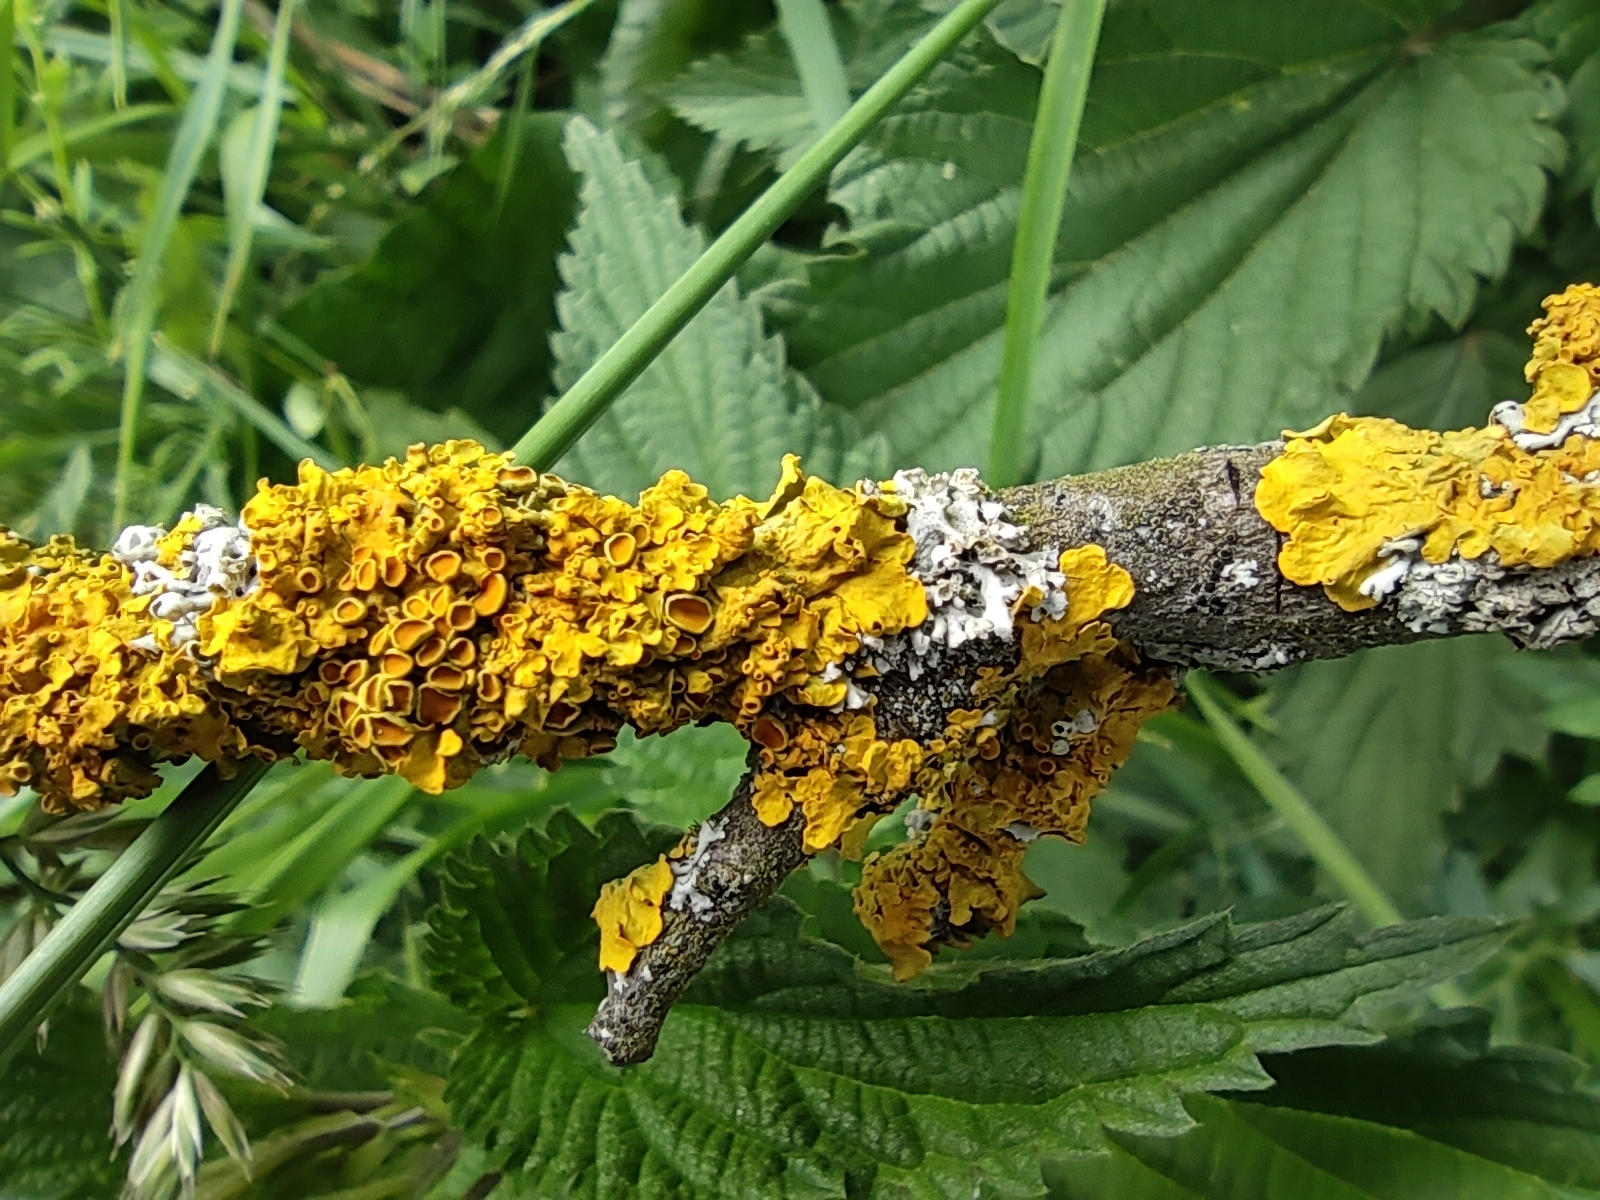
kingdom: Fungi
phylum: Ascomycota
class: Lecanoromycetes
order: Teloschistales
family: Teloschistaceae
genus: Xanthoria
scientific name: Xanthoria parietina
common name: Common orange lichen
